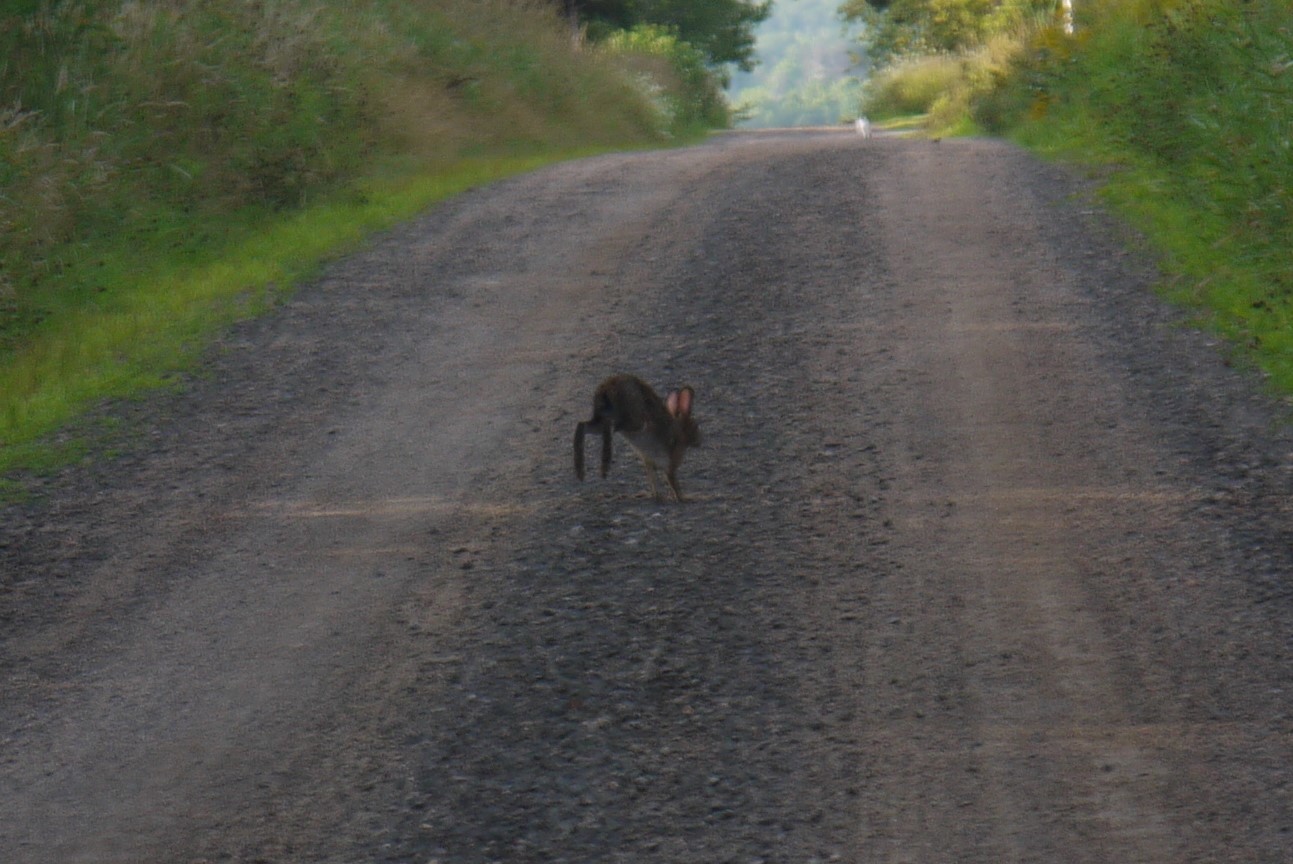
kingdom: Animalia
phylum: Chordata
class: Mammalia
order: Lagomorpha
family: Leporidae
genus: Lepus
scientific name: Lepus americanus
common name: Snowshoe hare
